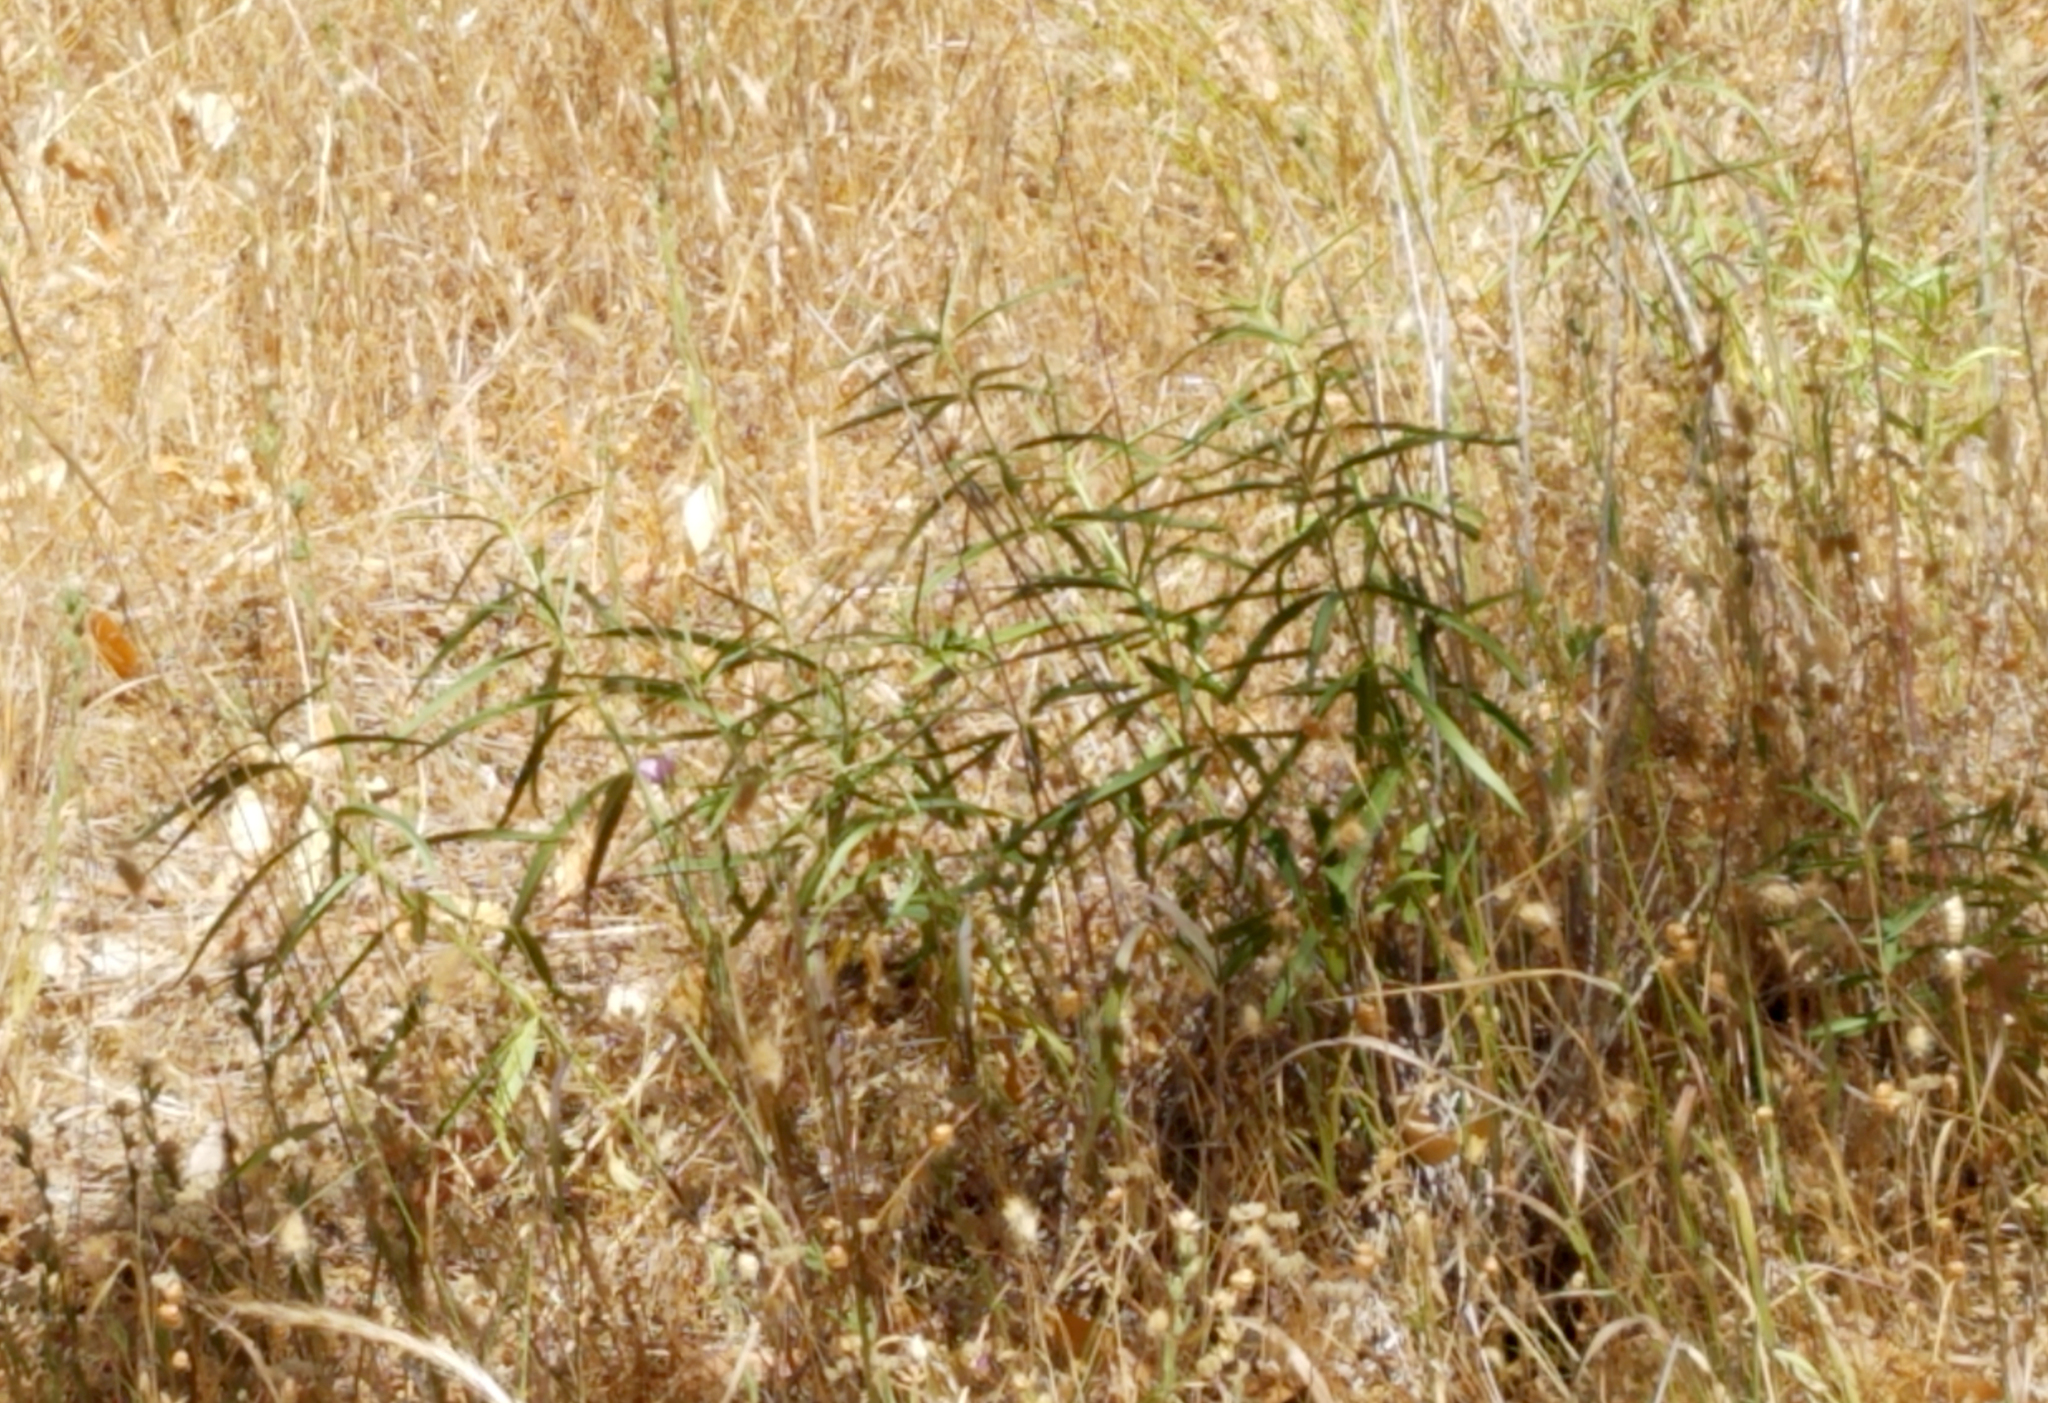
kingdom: Plantae
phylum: Tracheophyta
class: Magnoliopsida
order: Gentianales
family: Apocynaceae
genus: Asclepias
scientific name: Asclepias fascicularis
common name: Mexican milkweed
